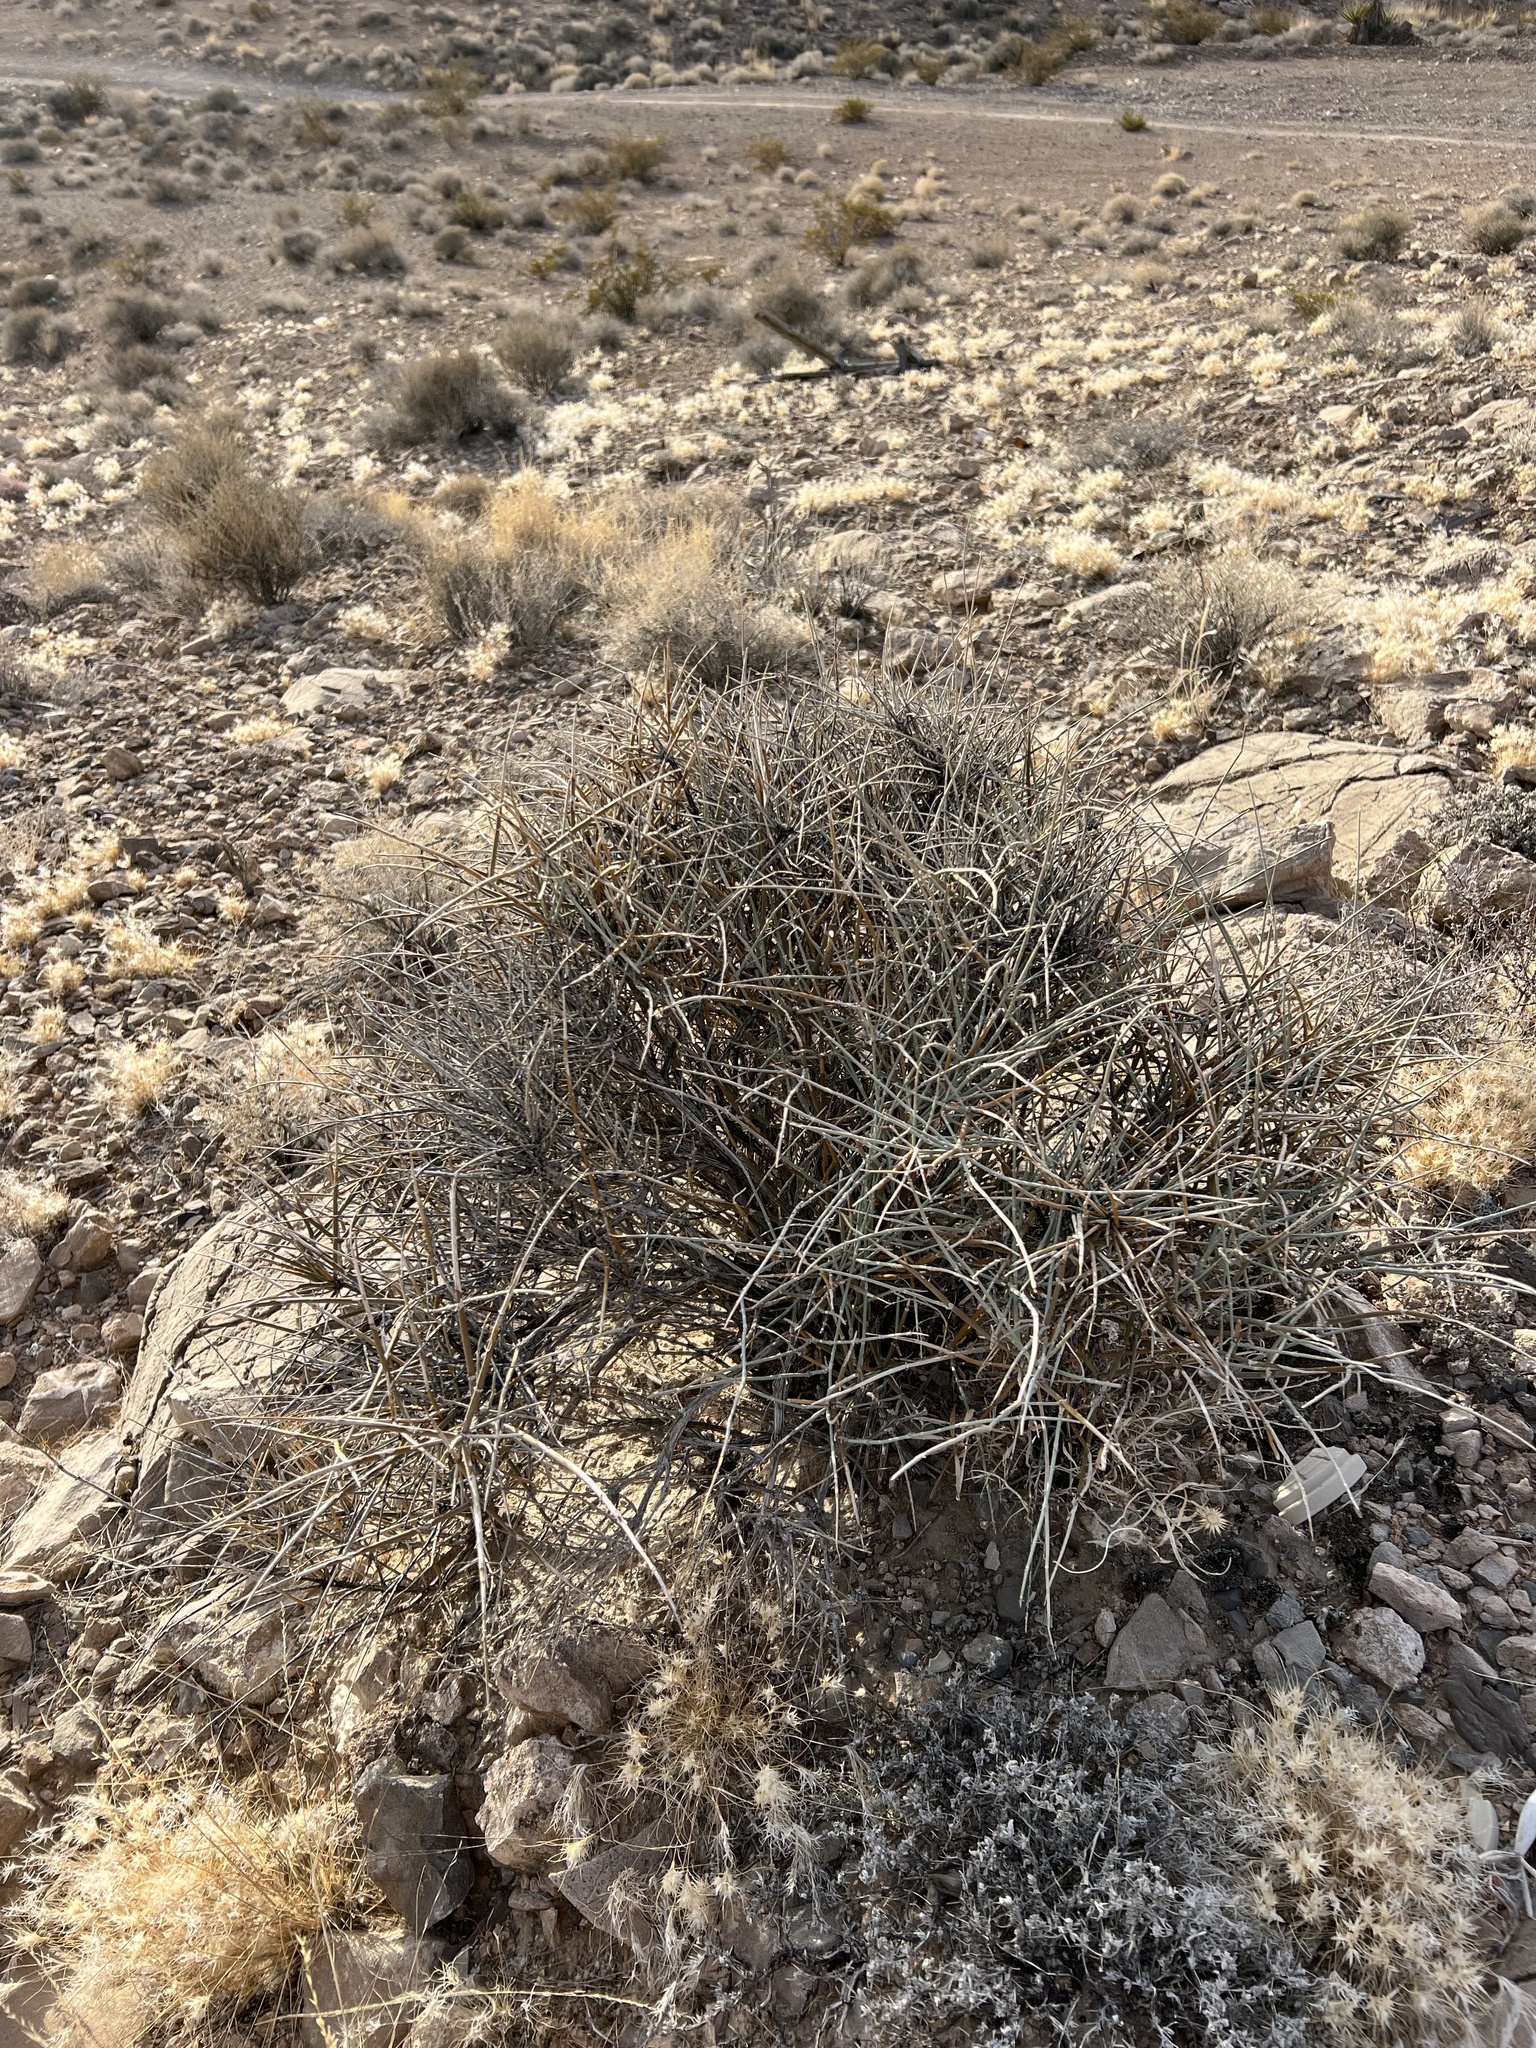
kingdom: Plantae
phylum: Tracheophyta
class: Gnetopsida
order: Ephedrales
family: Ephedraceae
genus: Ephedra
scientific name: Ephedra nevadensis
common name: Gray ephedra
